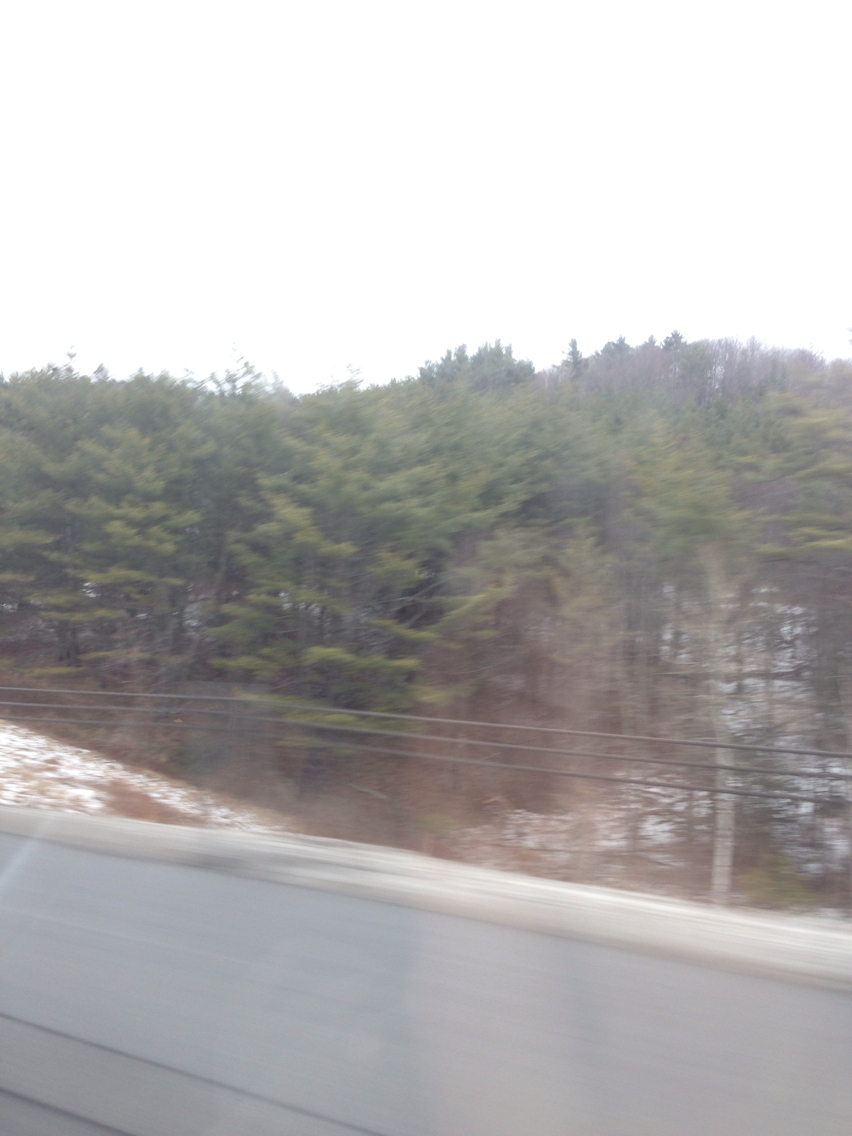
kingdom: Plantae
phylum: Tracheophyta
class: Pinopsida
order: Pinales
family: Pinaceae
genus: Pinus
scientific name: Pinus strobus
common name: Weymouth pine
